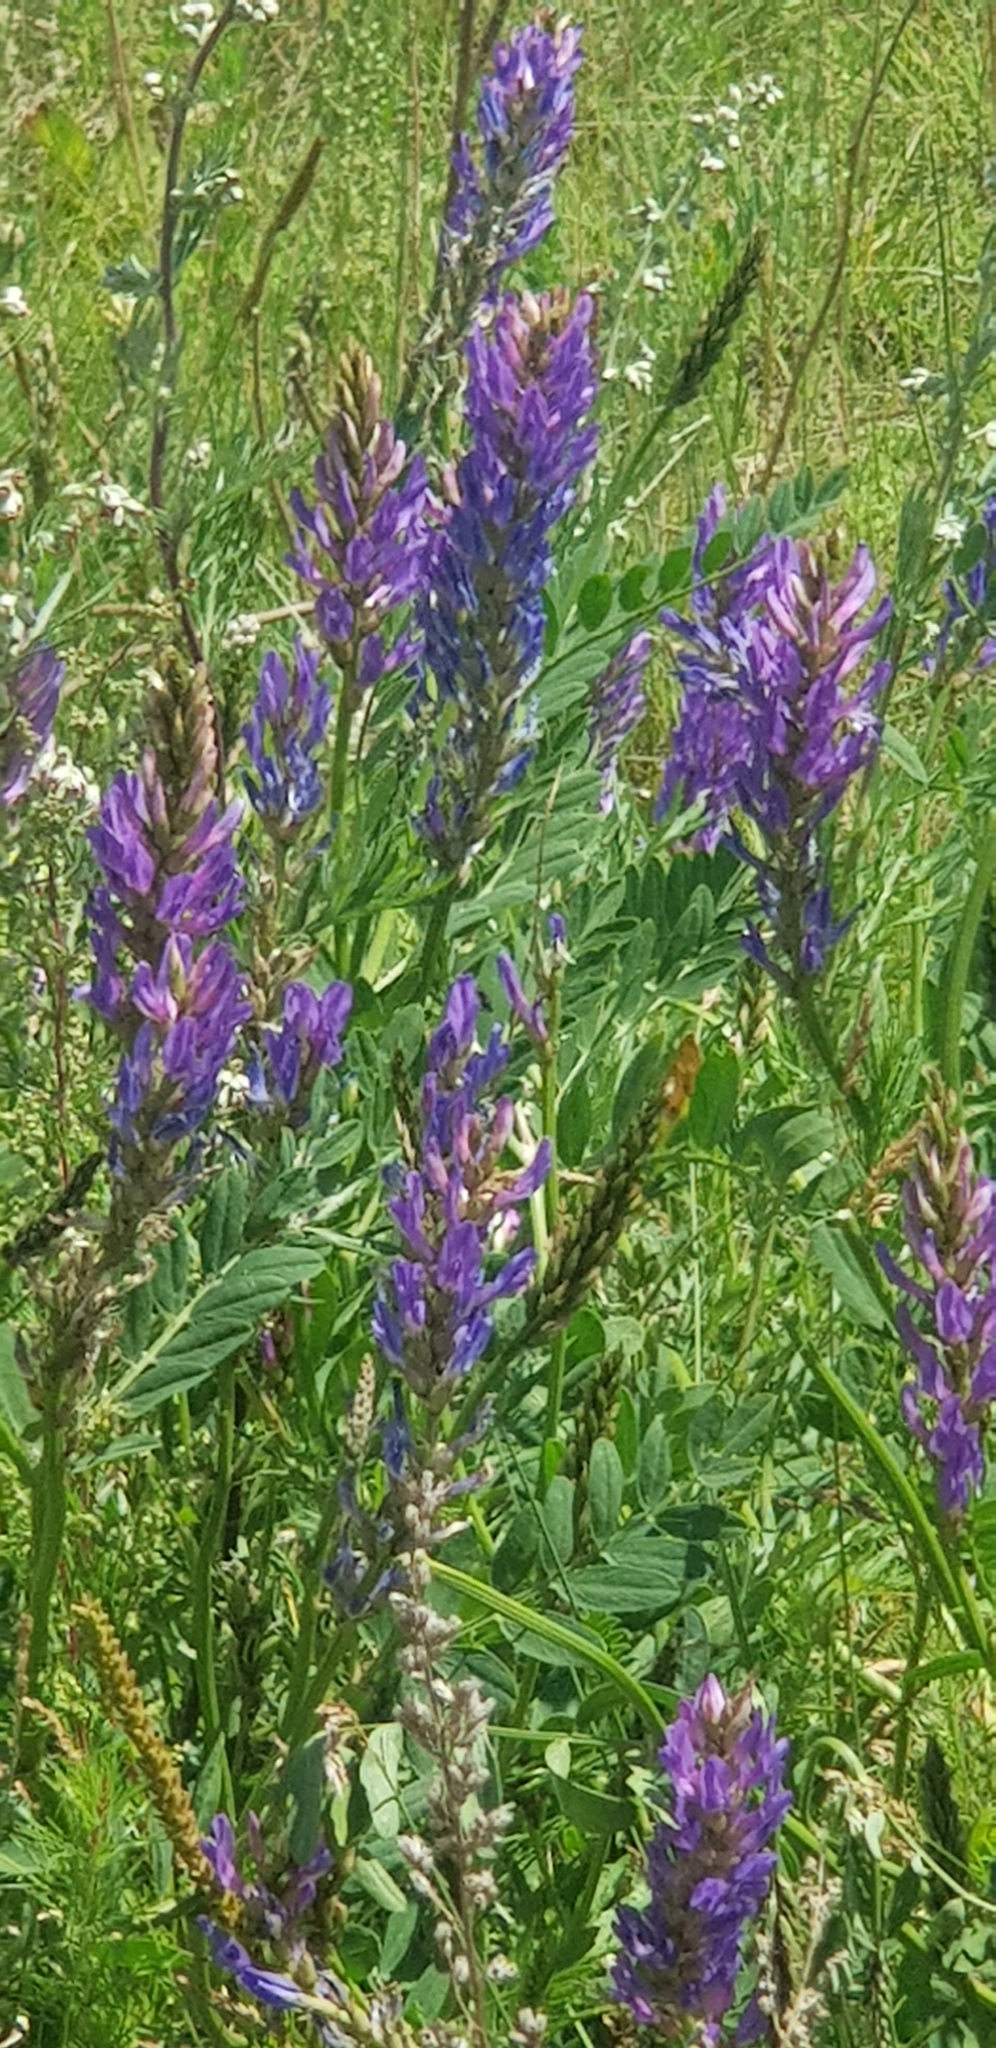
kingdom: Plantae
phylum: Tracheophyta
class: Magnoliopsida
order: Fabales
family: Fabaceae
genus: Astragalus
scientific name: Astragalus laxmannii
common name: Laxmann's milk-vetch
